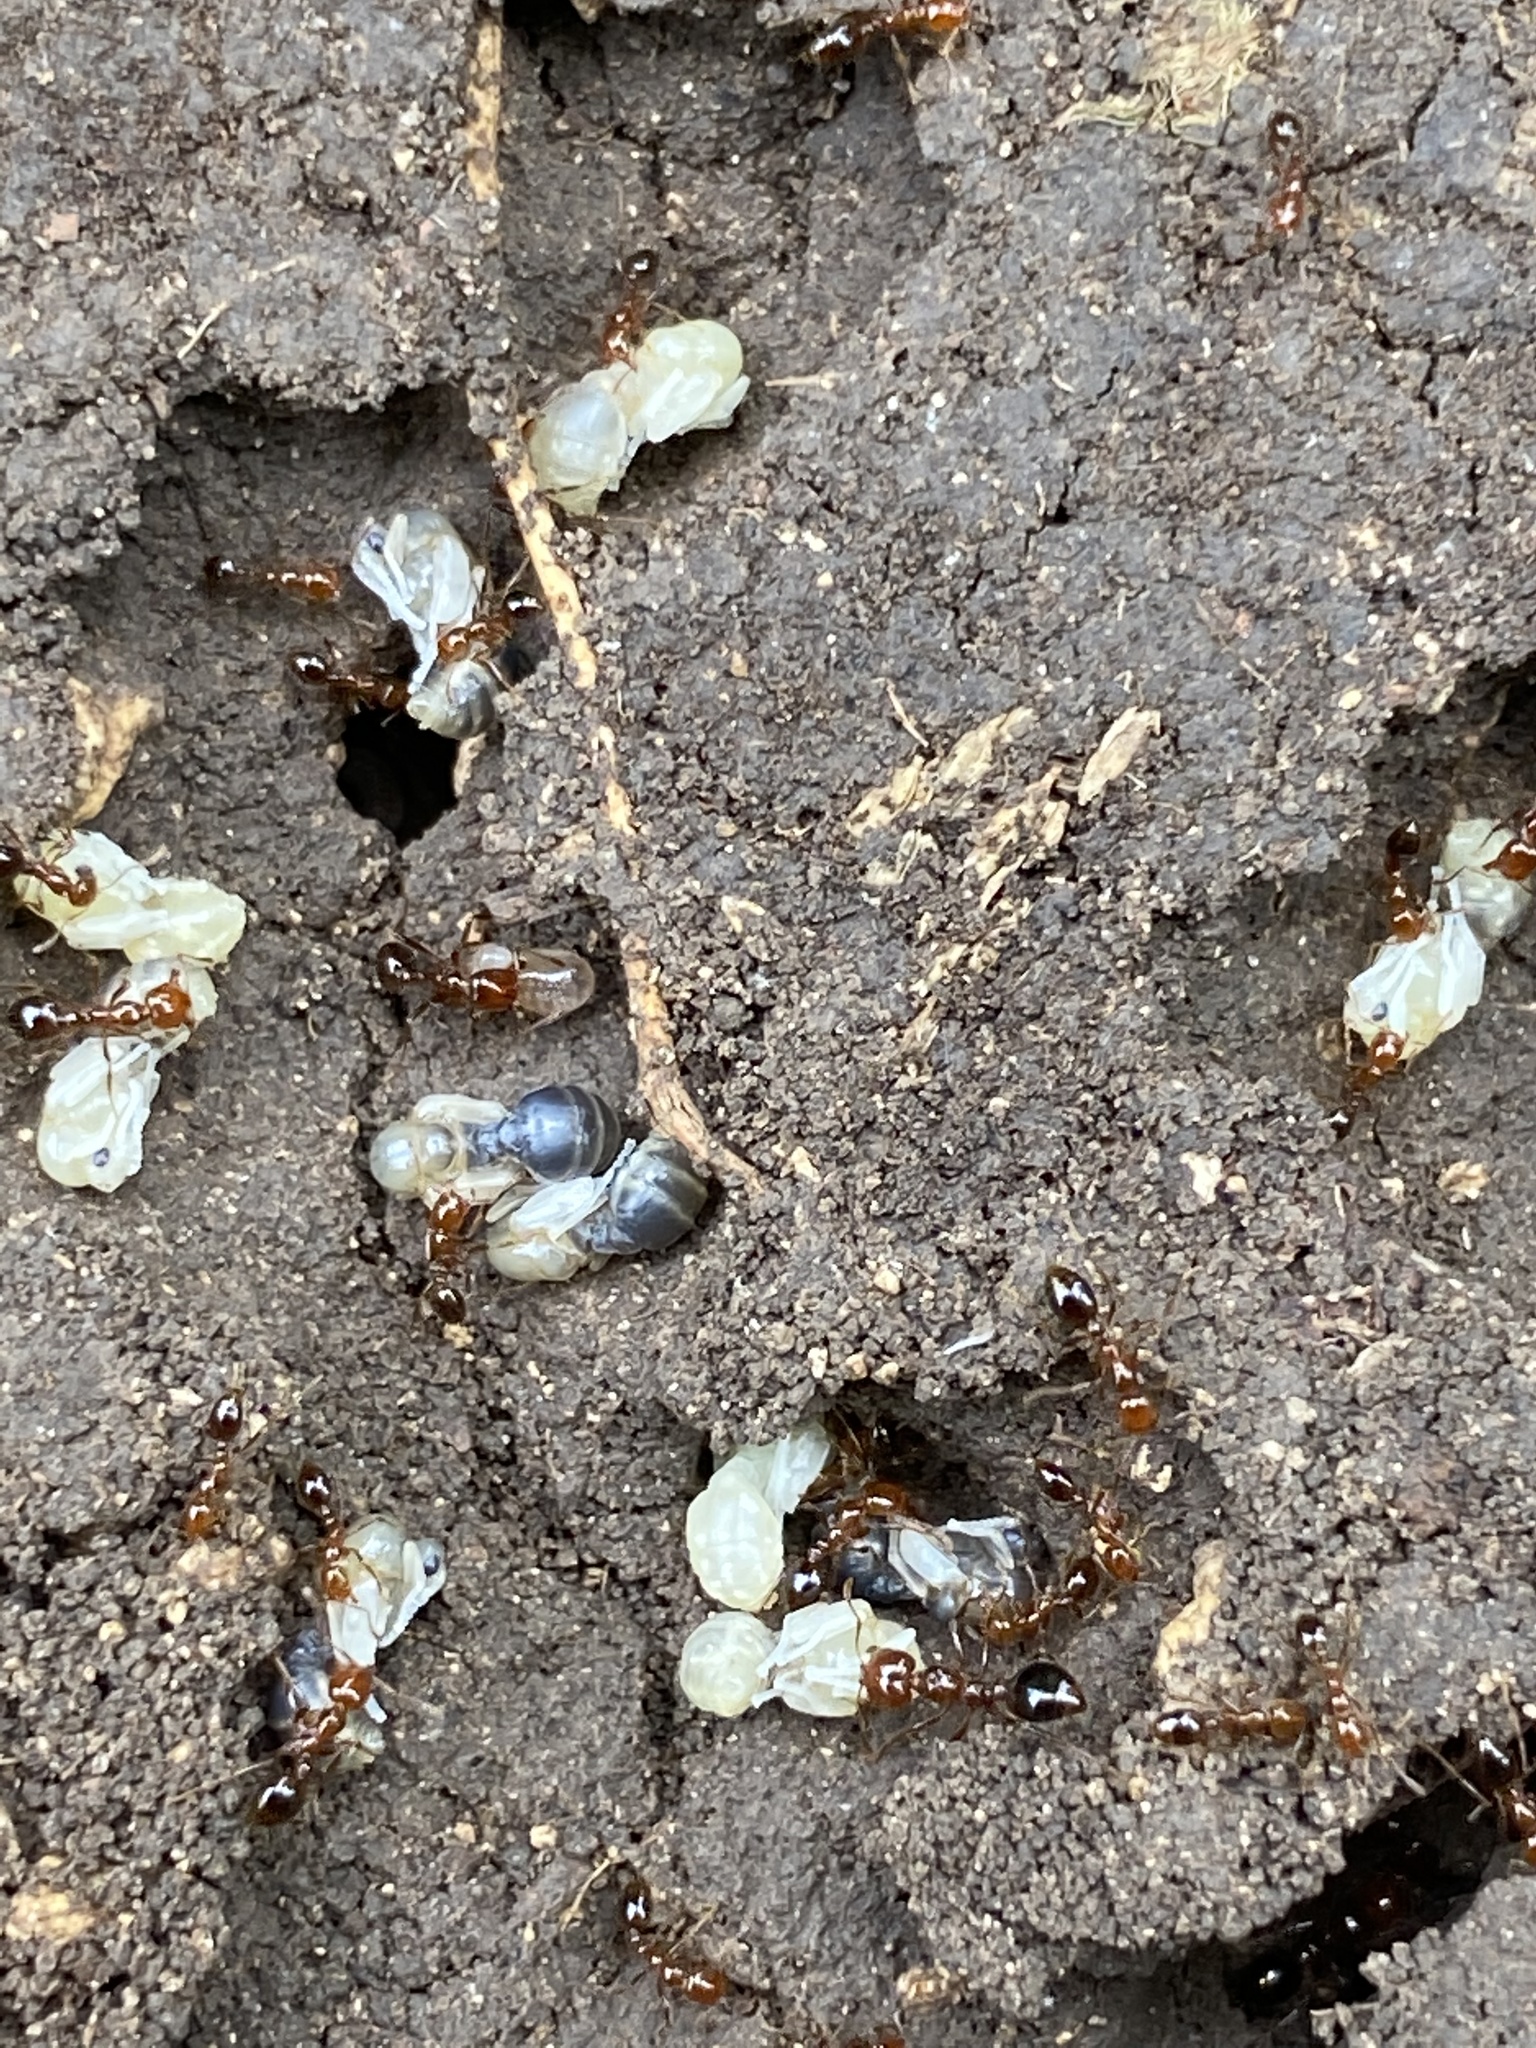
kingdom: Animalia
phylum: Arthropoda
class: Insecta
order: Hymenoptera
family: Formicidae
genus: Solenopsis
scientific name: Solenopsis invicta
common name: Red imported fire ant
